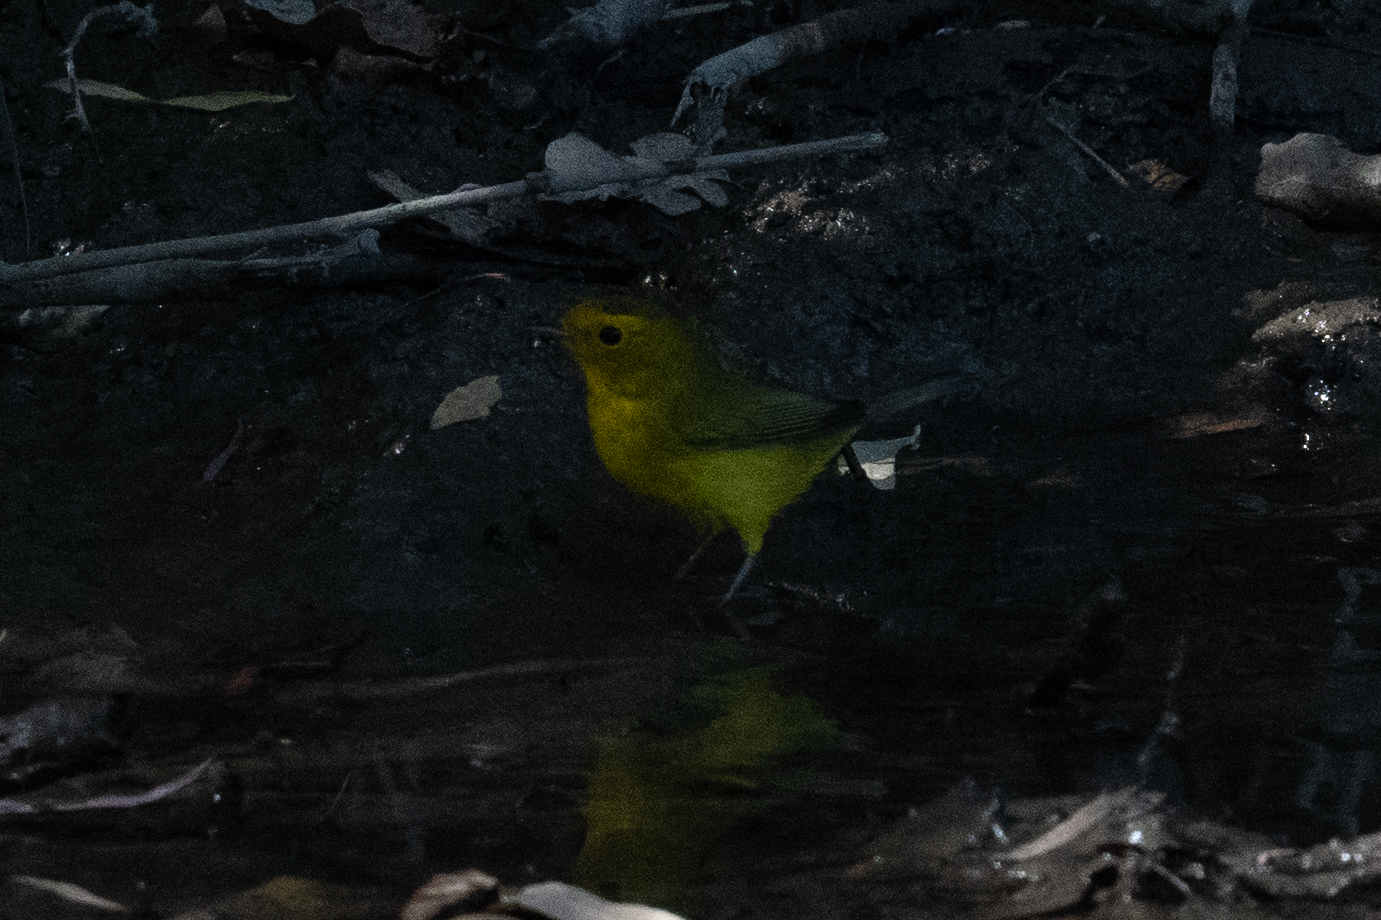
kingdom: Animalia
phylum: Chordata
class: Aves
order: Passeriformes
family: Parulidae
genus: Cardellina
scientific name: Cardellina pusilla
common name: Wilson's warbler
